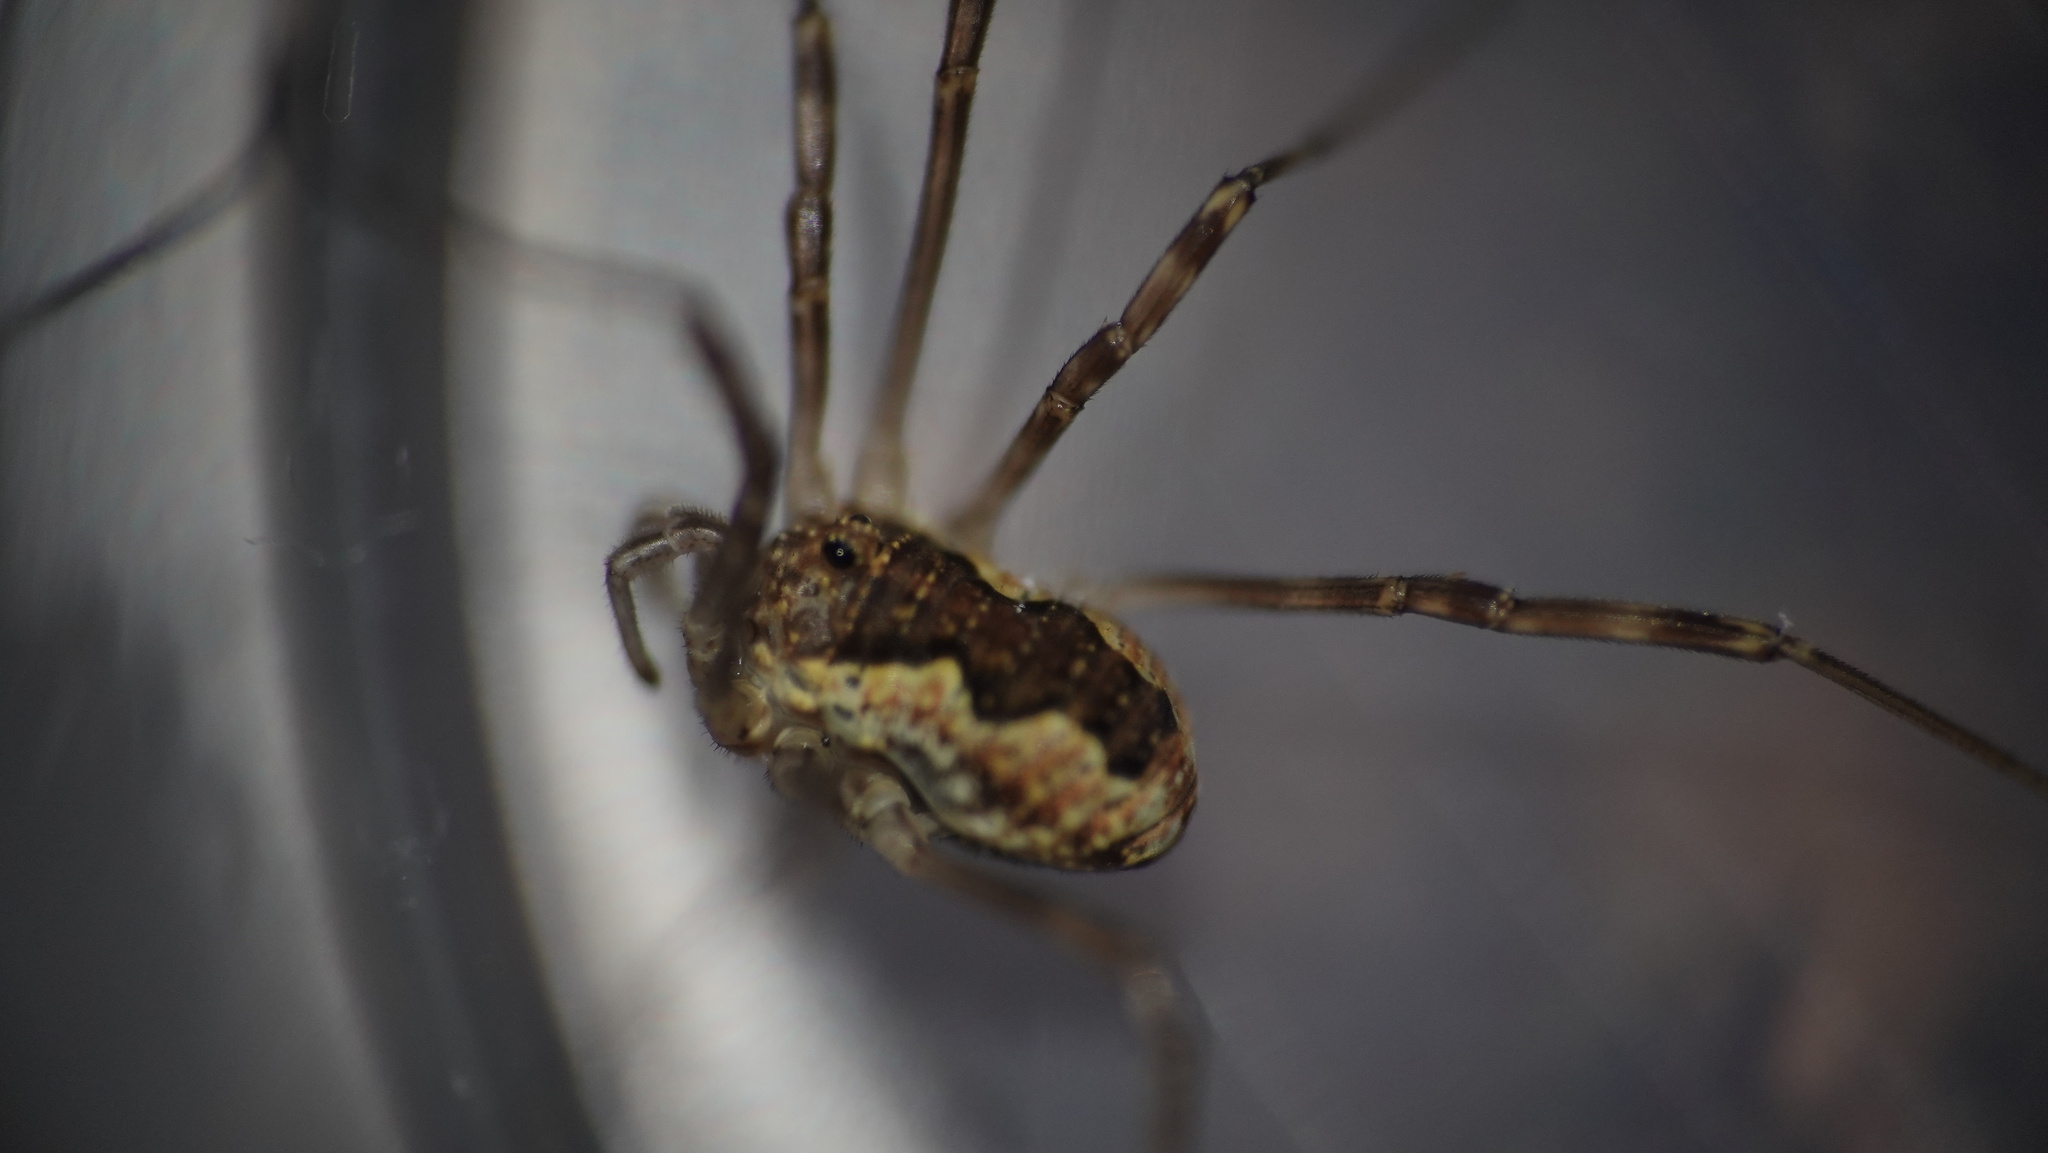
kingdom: Animalia
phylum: Arthropoda
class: Arachnida
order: Opiliones
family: Phalangiidae
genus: Mitopus
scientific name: Mitopus morio
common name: Saddleback harvestman
